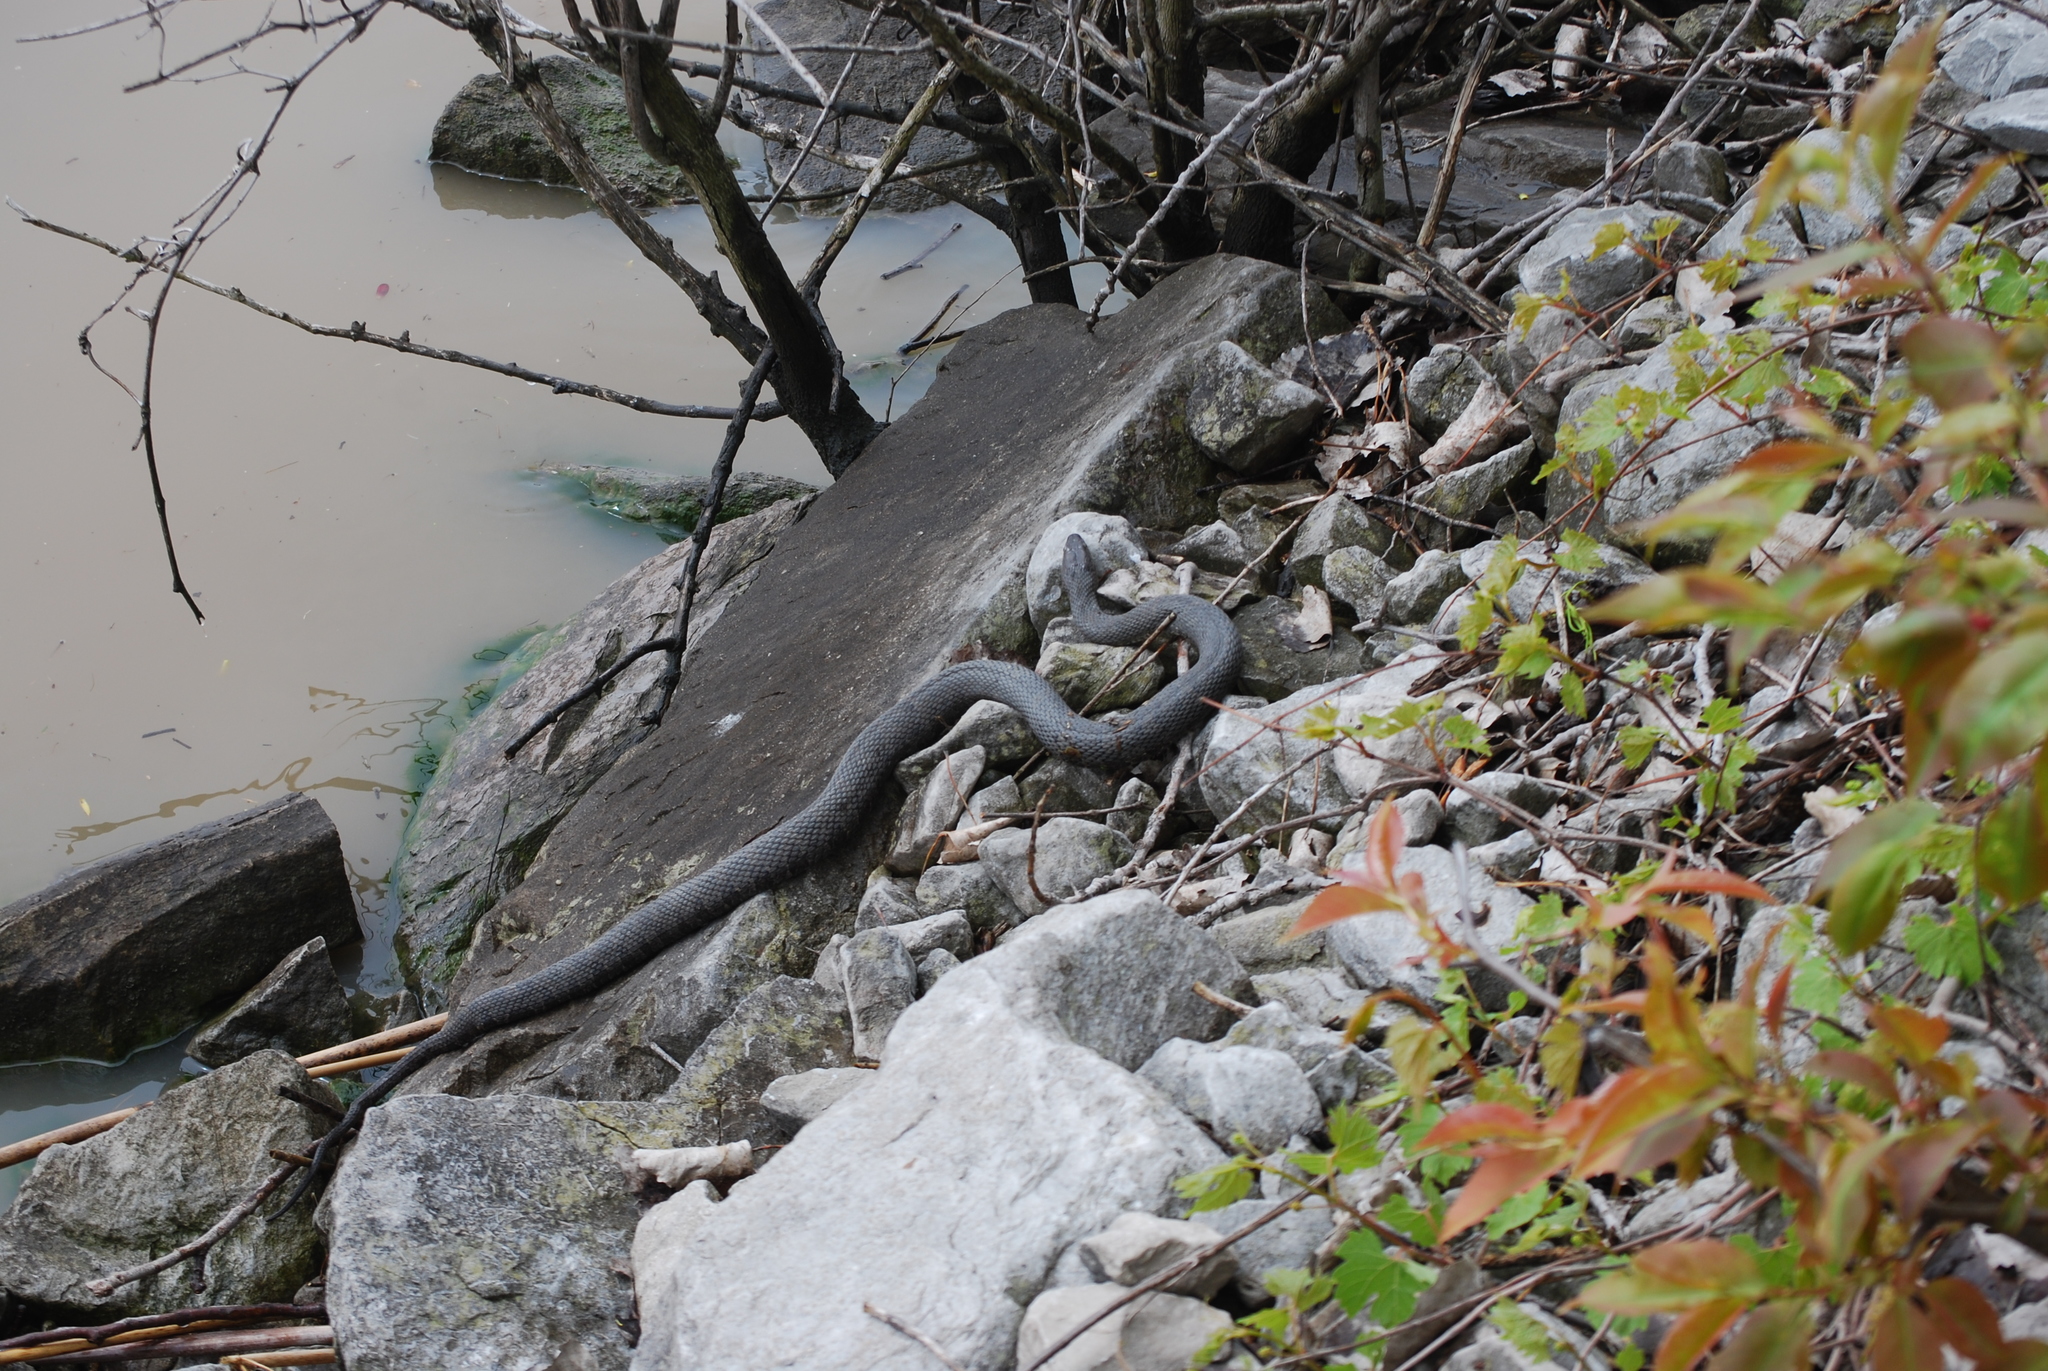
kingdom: Animalia
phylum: Chordata
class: Squamata
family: Colubridae
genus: Nerodia
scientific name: Nerodia sipedon
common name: Northern water snake
